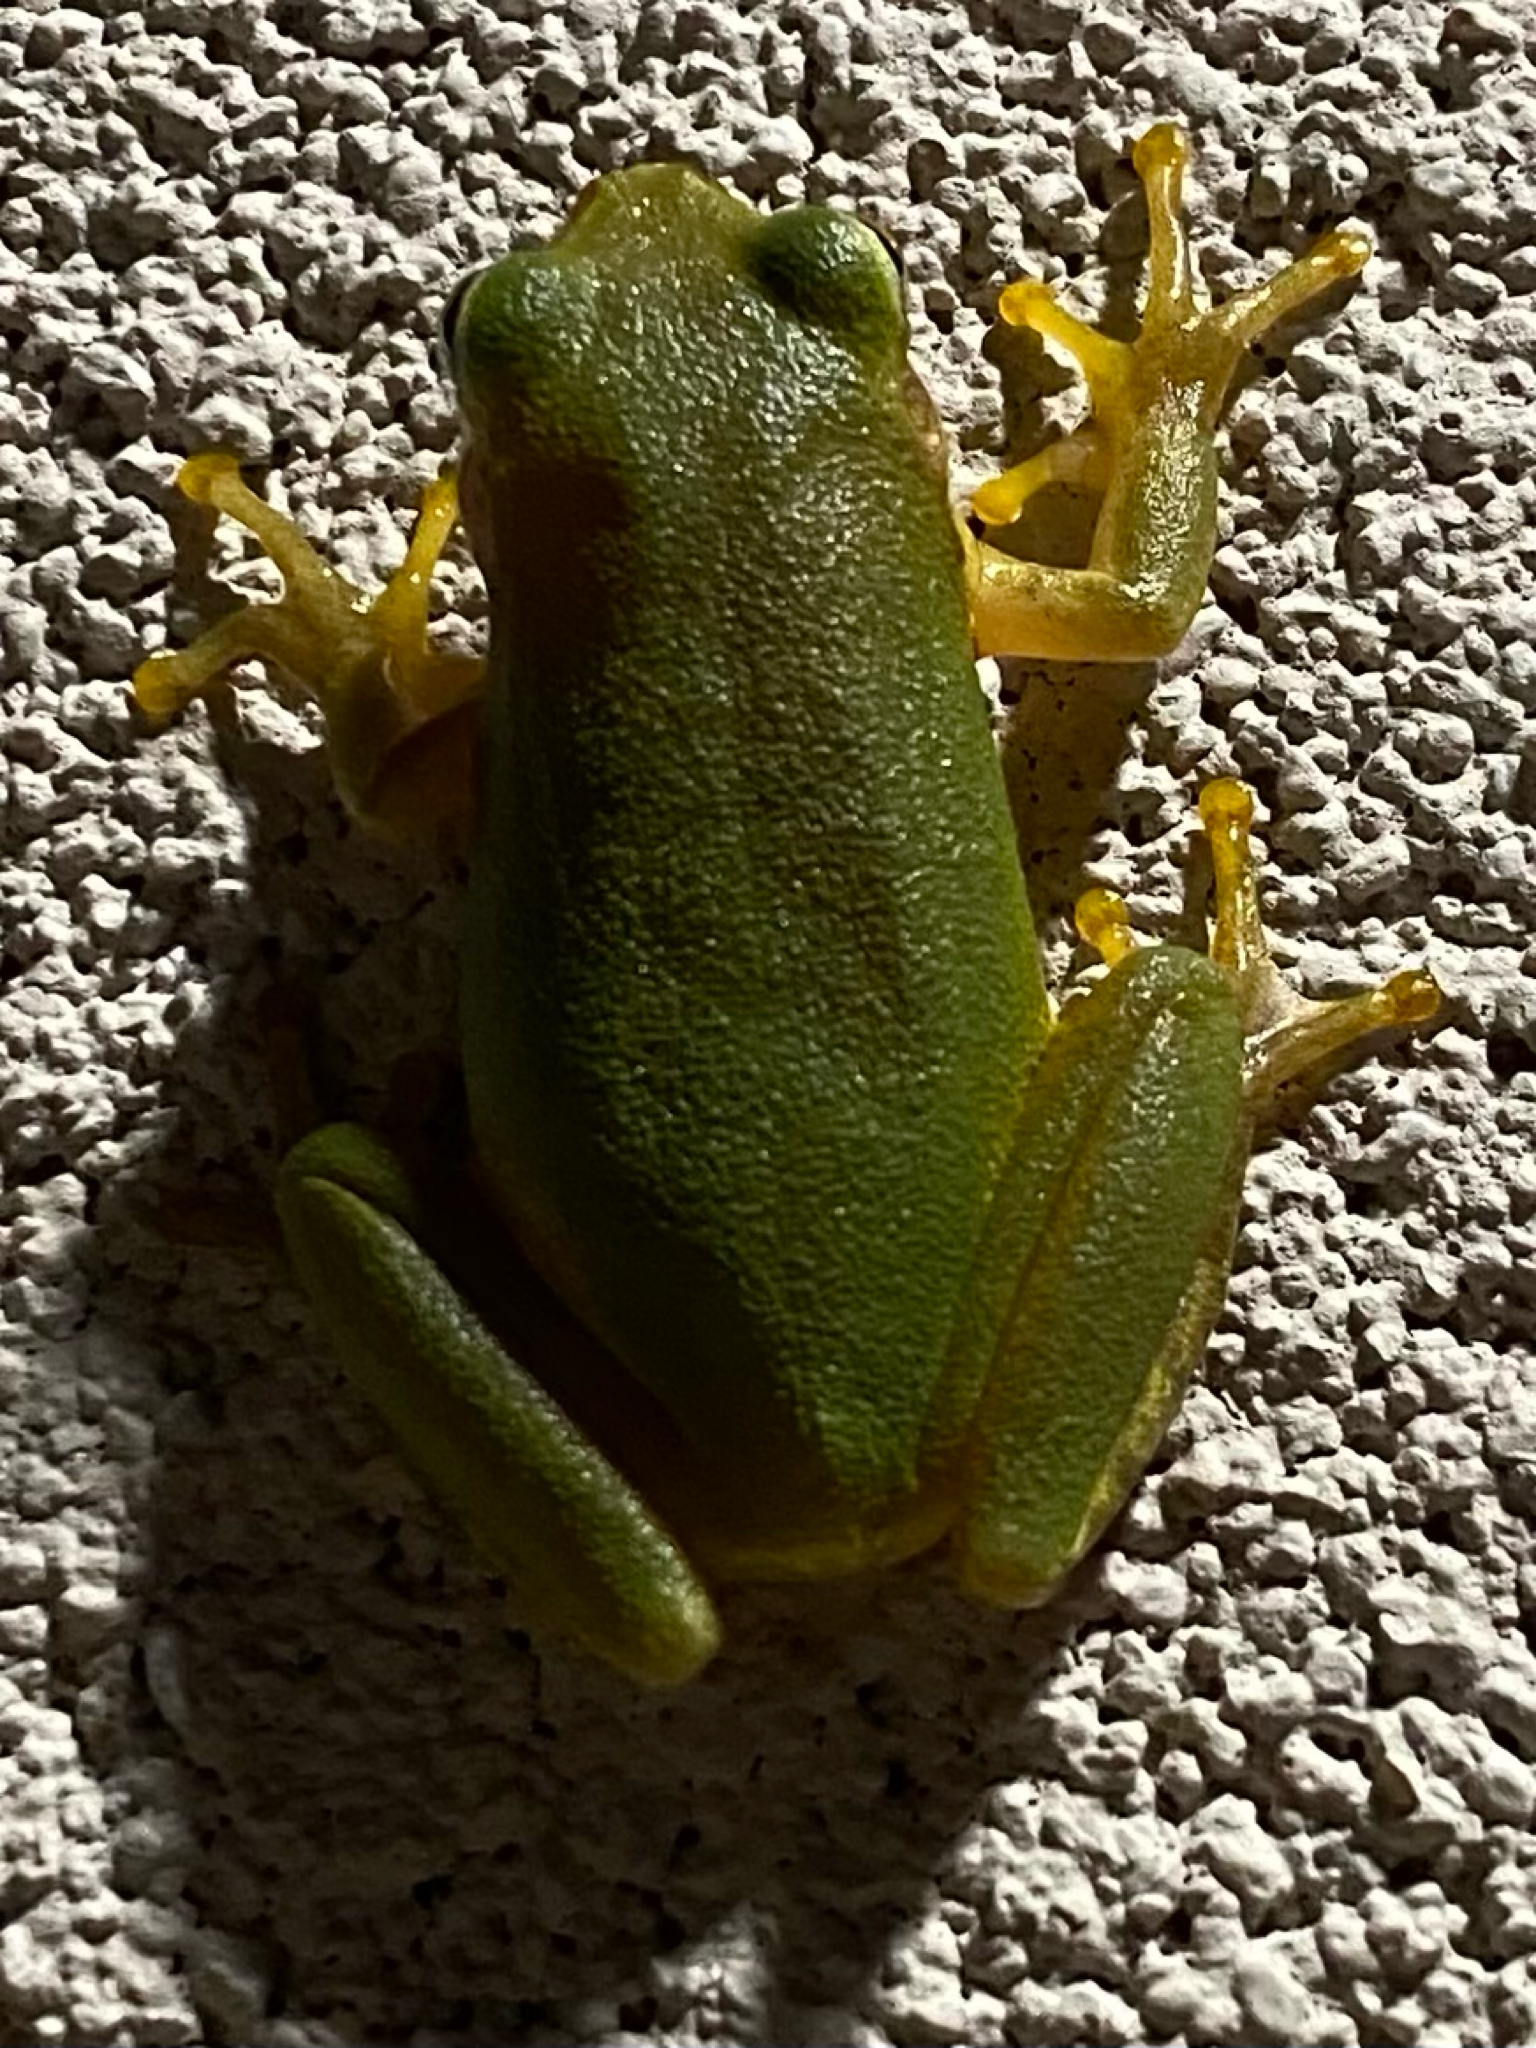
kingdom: Animalia
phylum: Chordata
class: Amphibia
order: Anura
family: Hylidae
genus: Dryophytes
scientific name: Dryophytes squirellus
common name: Squirrel treefrog
